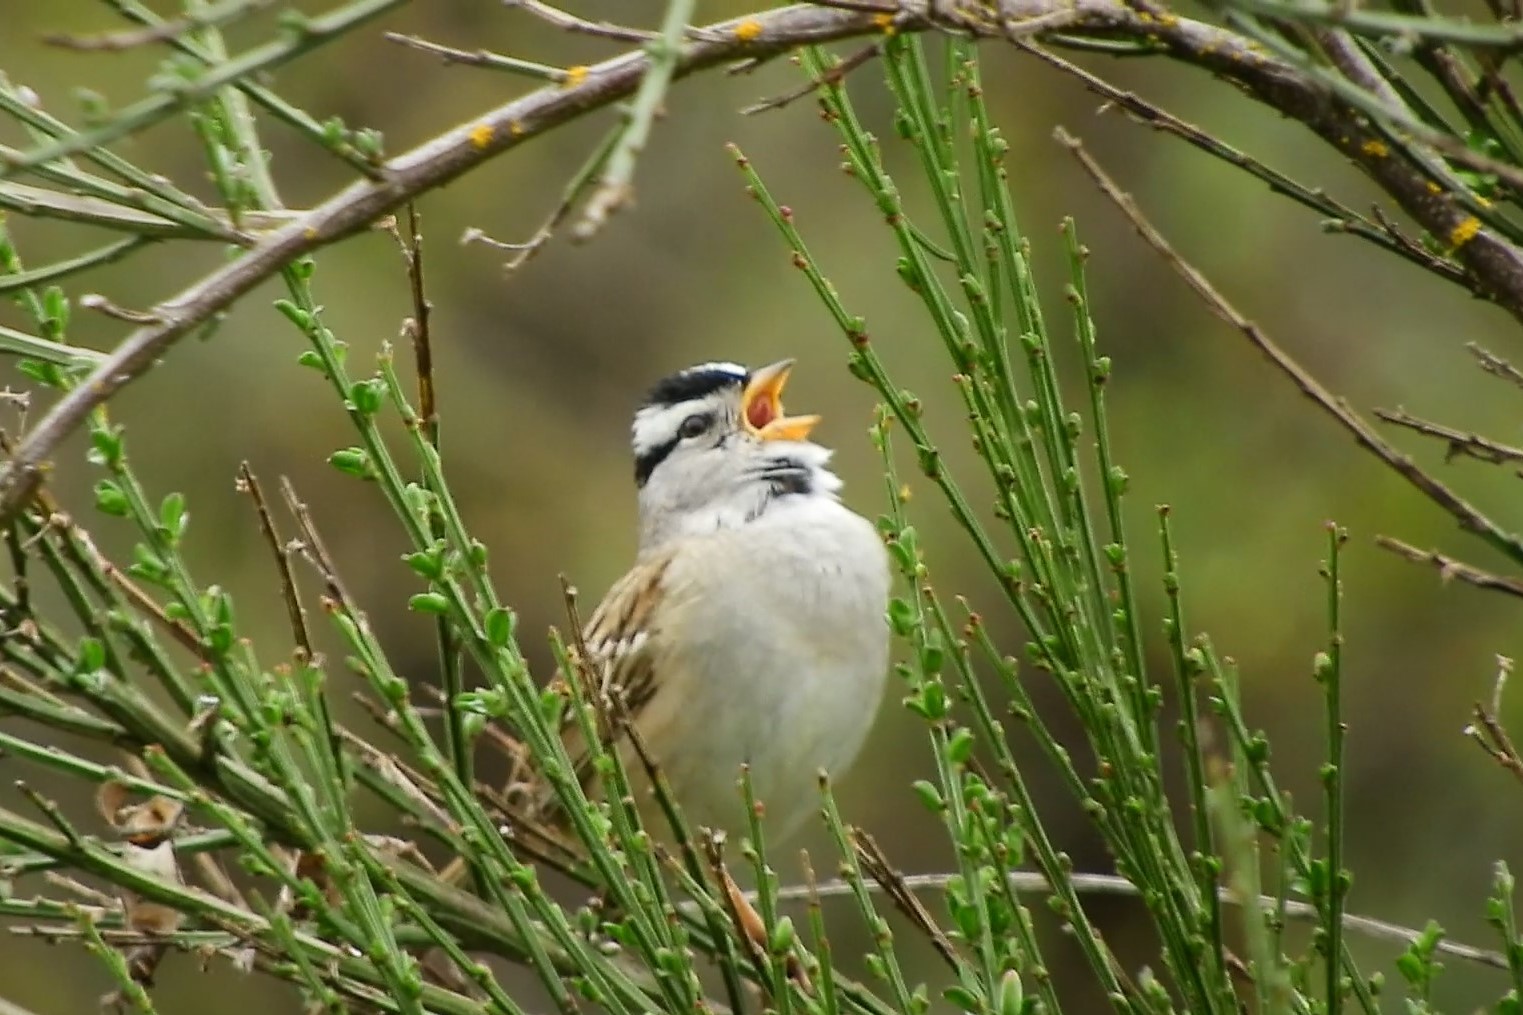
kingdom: Animalia
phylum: Chordata
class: Aves
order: Passeriformes
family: Passerellidae
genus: Zonotrichia
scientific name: Zonotrichia leucophrys
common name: White-crowned sparrow
